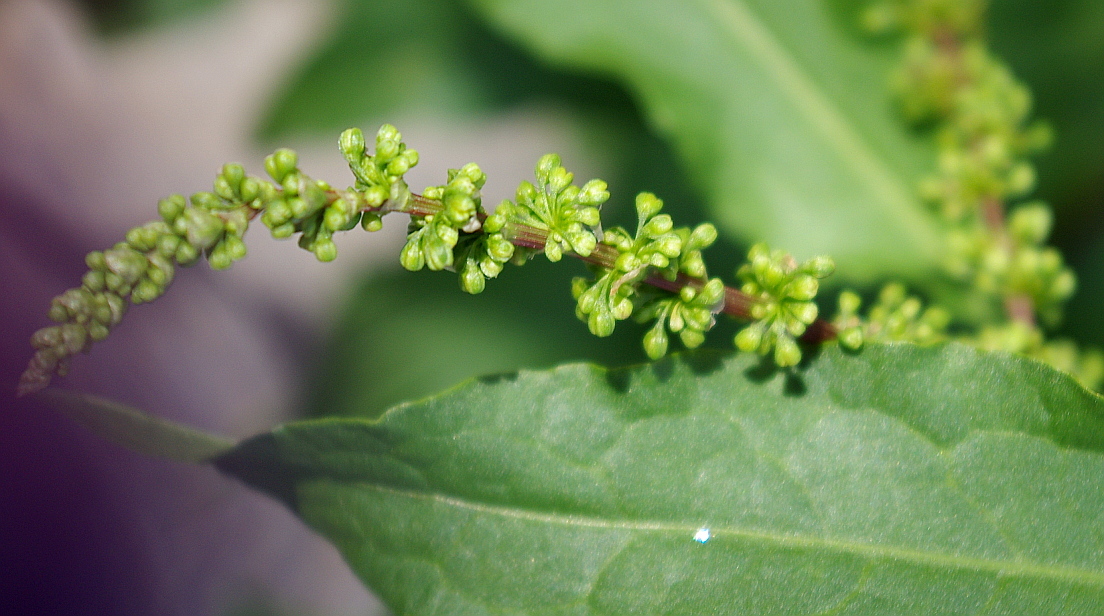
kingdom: Plantae
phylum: Tracheophyta
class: Magnoliopsida
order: Caryophyllales
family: Polygonaceae
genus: Rumex
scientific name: Rumex obtusifolius
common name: Bitter dock
